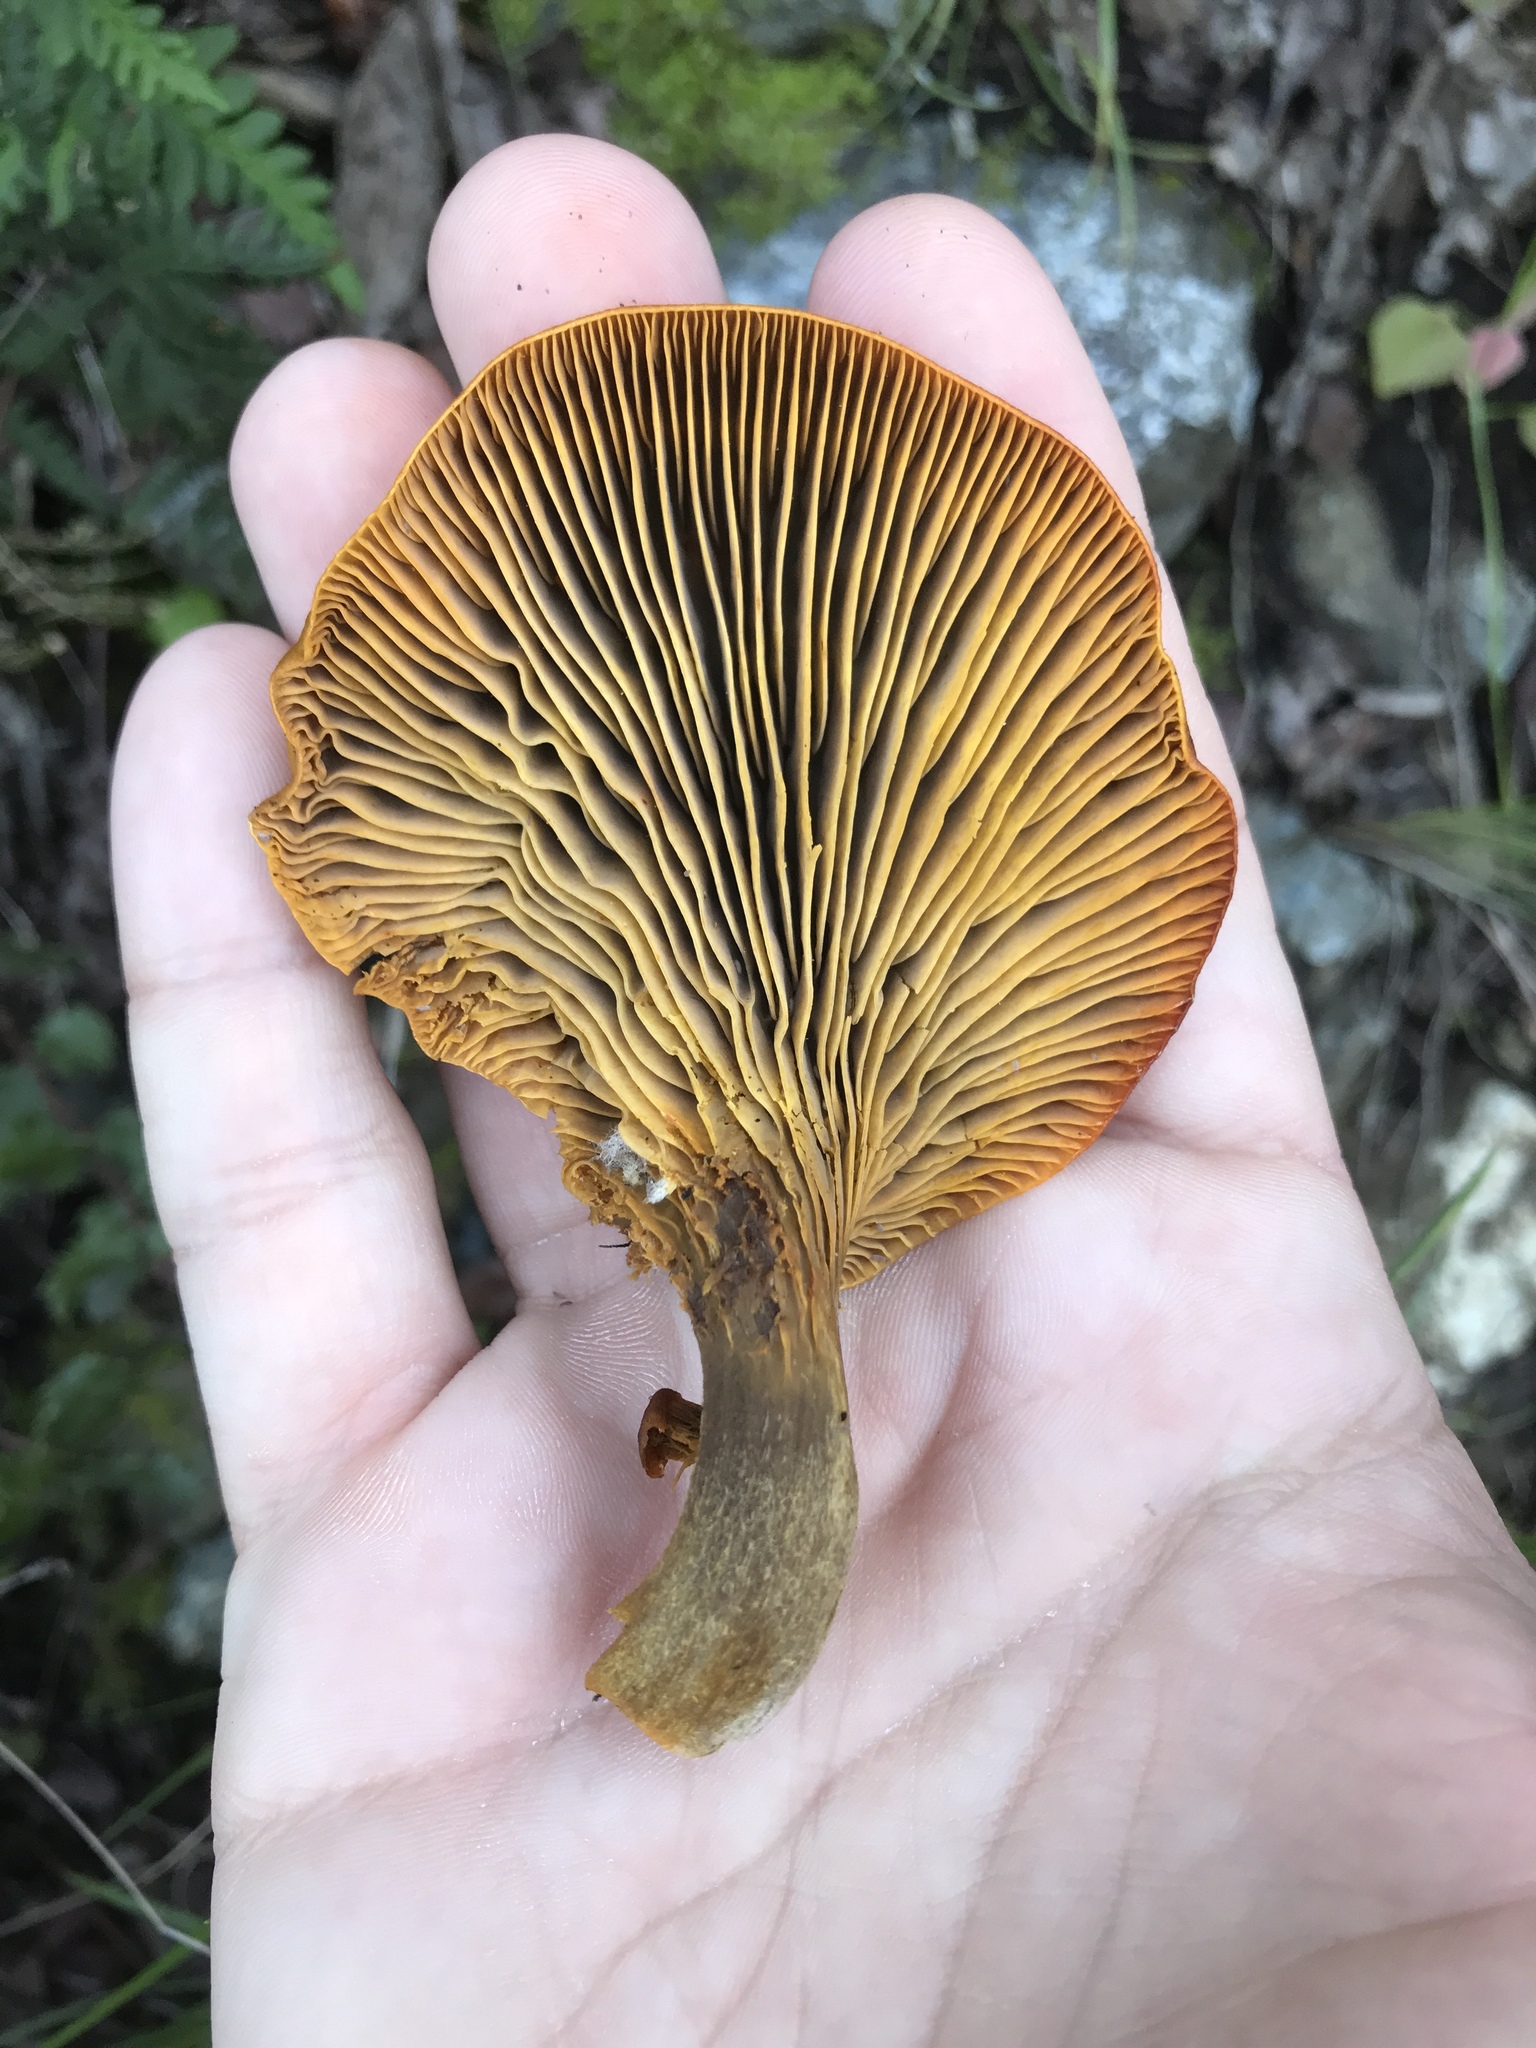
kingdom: Fungi
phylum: Basidiomycota
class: Agaricomycetes
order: Agaricales
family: Omphalotaceae
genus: Omphalotus
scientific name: Omphalotus olivascens
